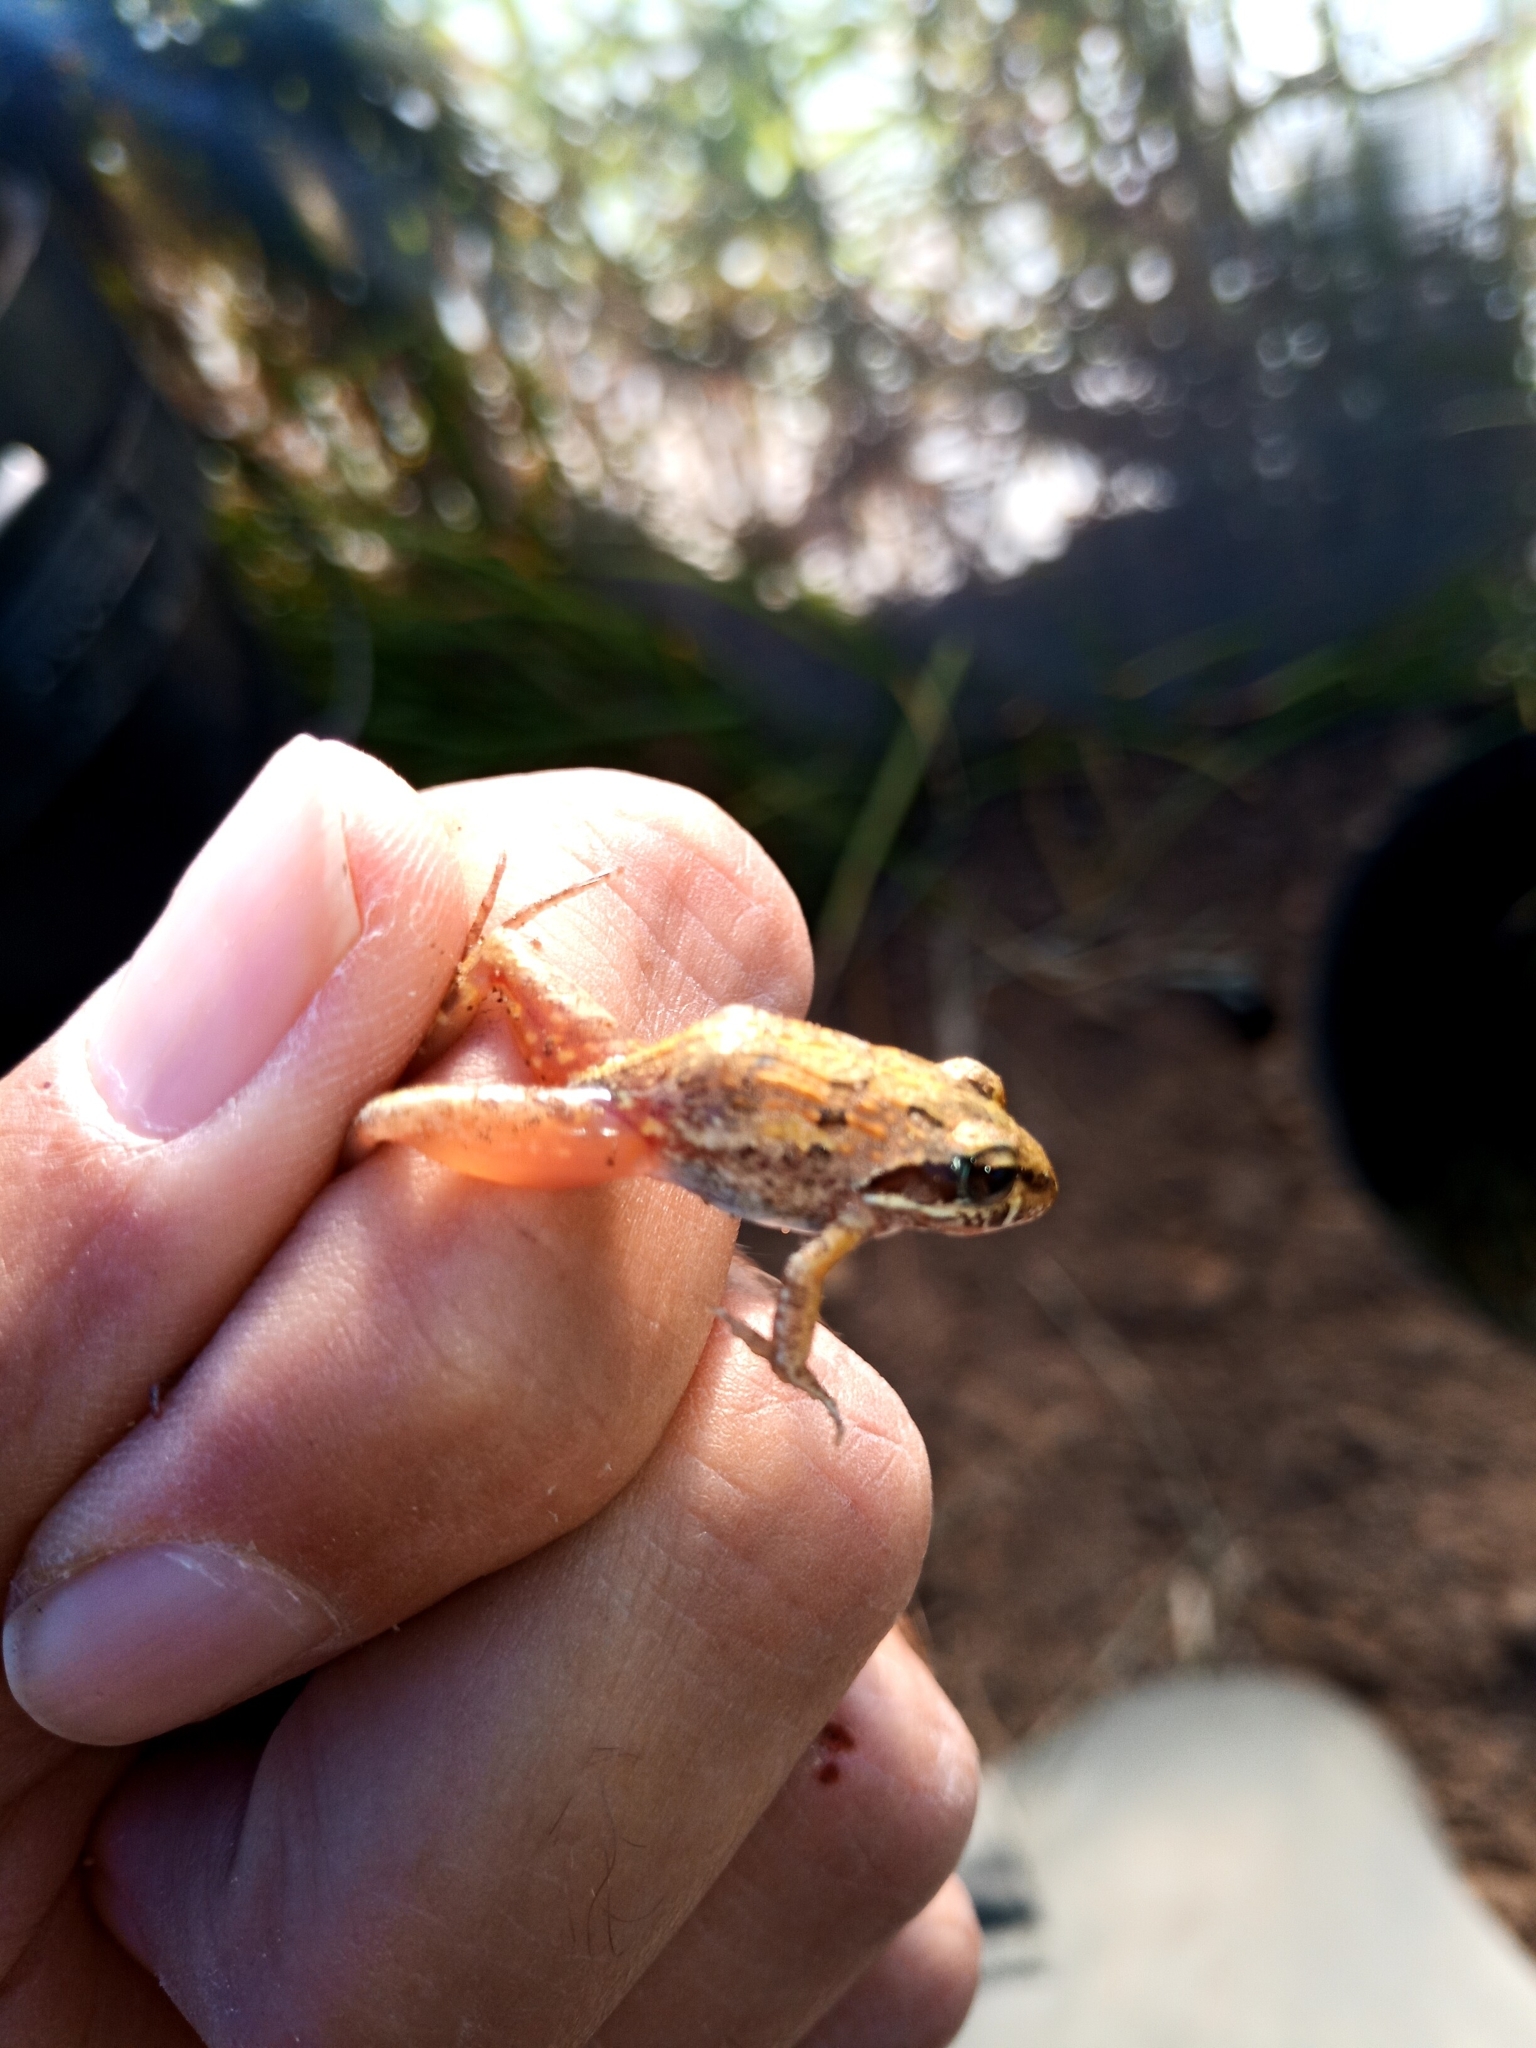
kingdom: Animalia
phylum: Chordata
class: Amphibia
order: Anura
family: Pyxicephalidae
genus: Strongylopus
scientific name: Strongylopus grayii
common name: Gray's stream frog
